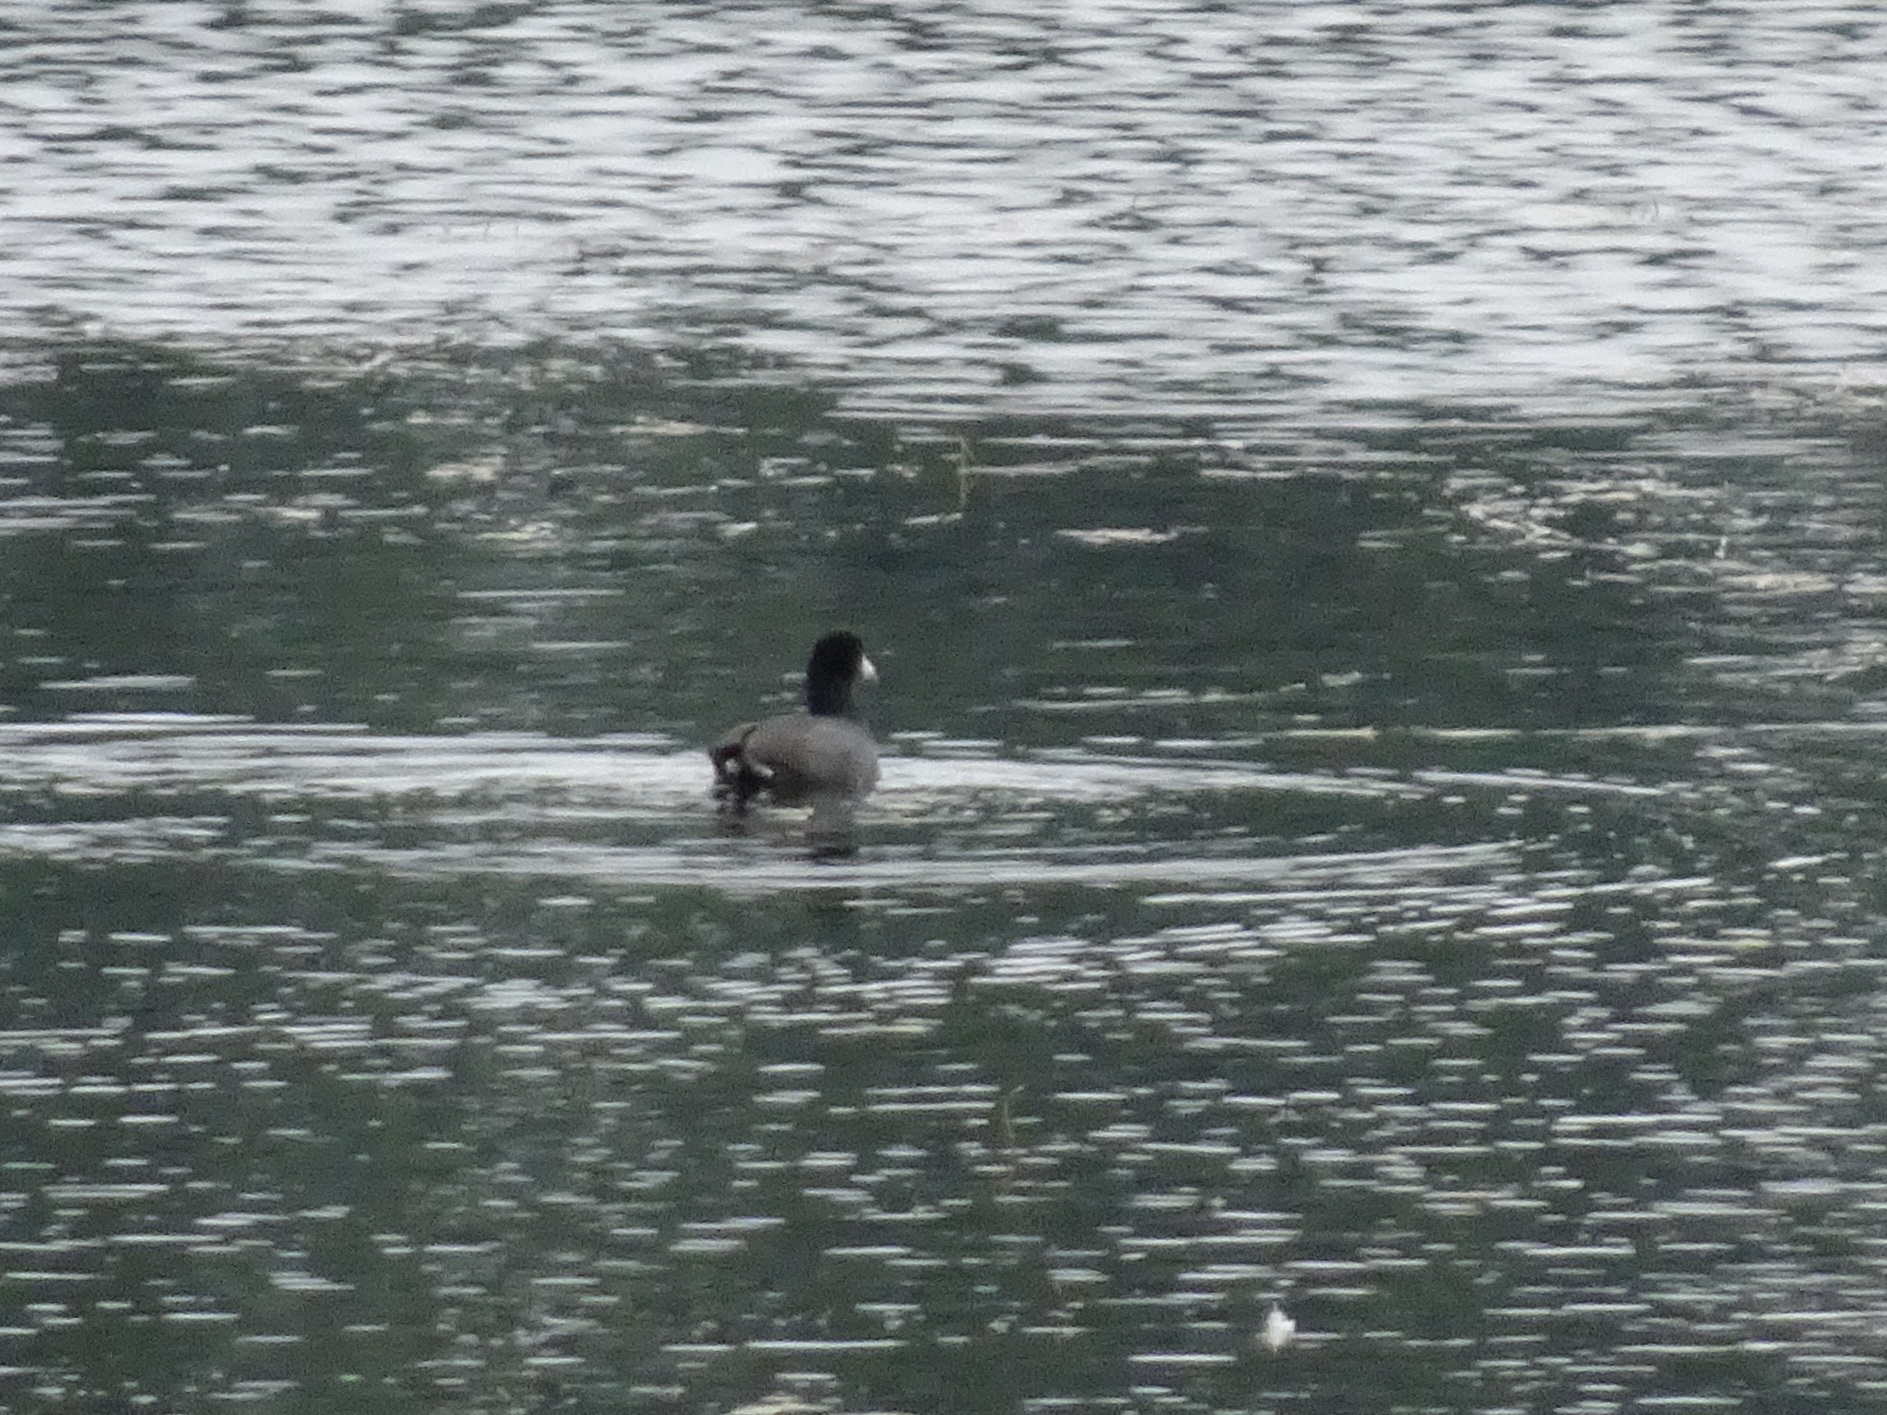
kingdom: Animalia
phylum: Chordata
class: Aves
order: Gruiformes
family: Rallidae
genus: Fulica
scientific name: Fulica americana
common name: American coot
